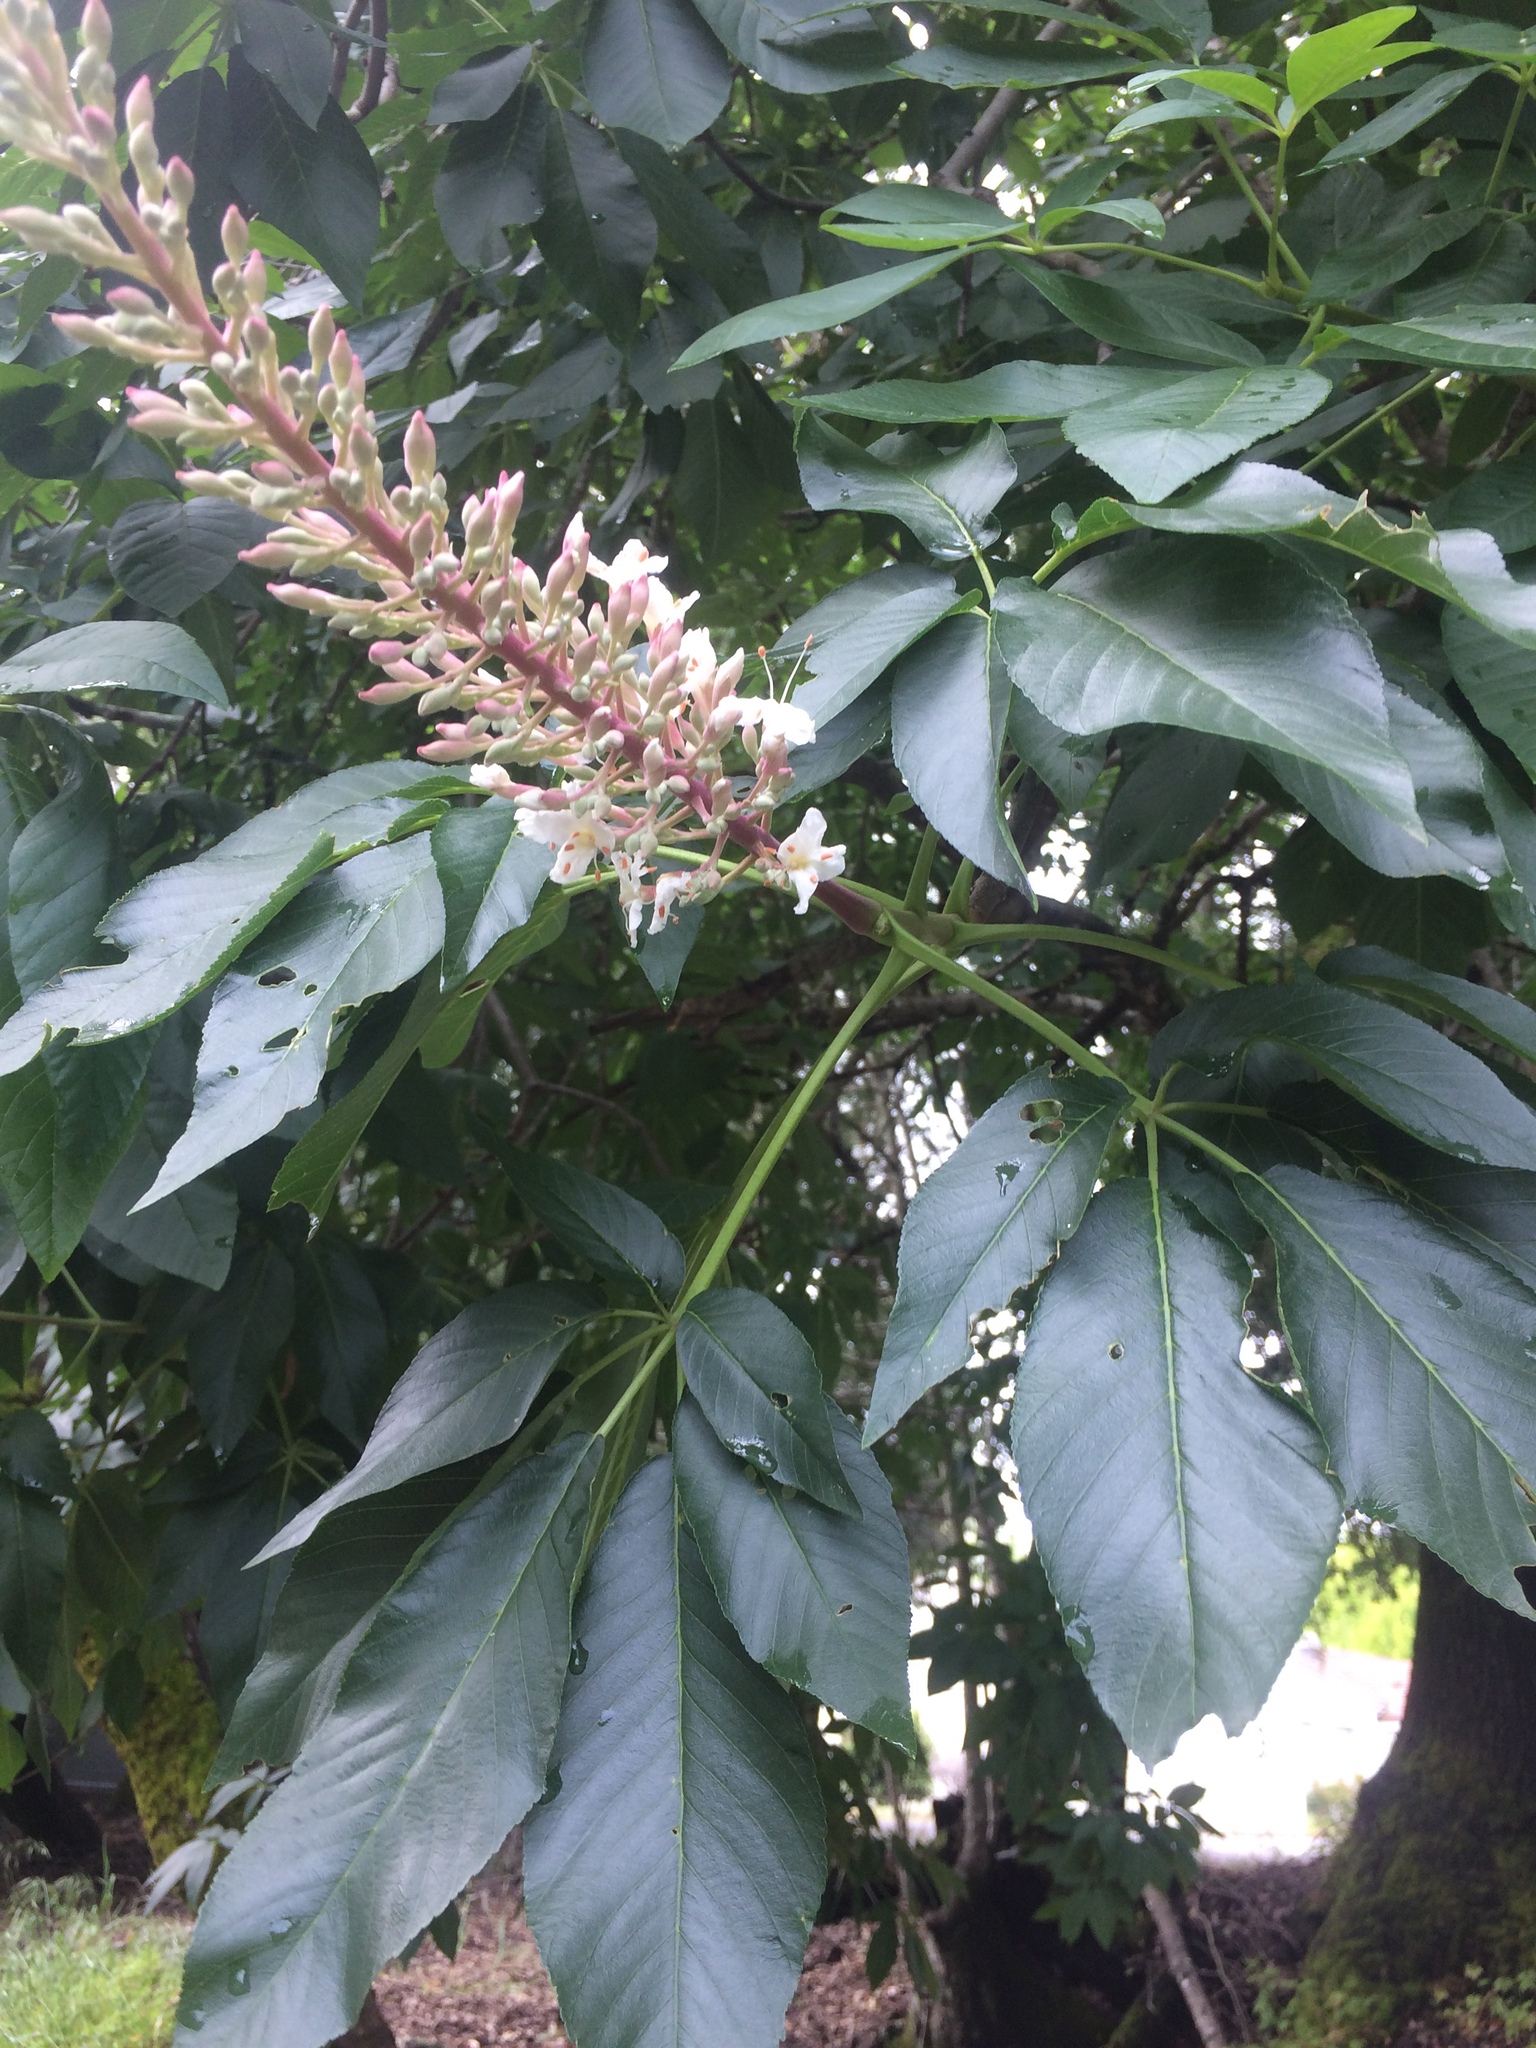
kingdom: Plantae
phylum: Tracheophyta
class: Magnoliopsida
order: Sapindales
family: Sapindaceae
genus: Aesculus
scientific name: Aesculus californica
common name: California buckeye
